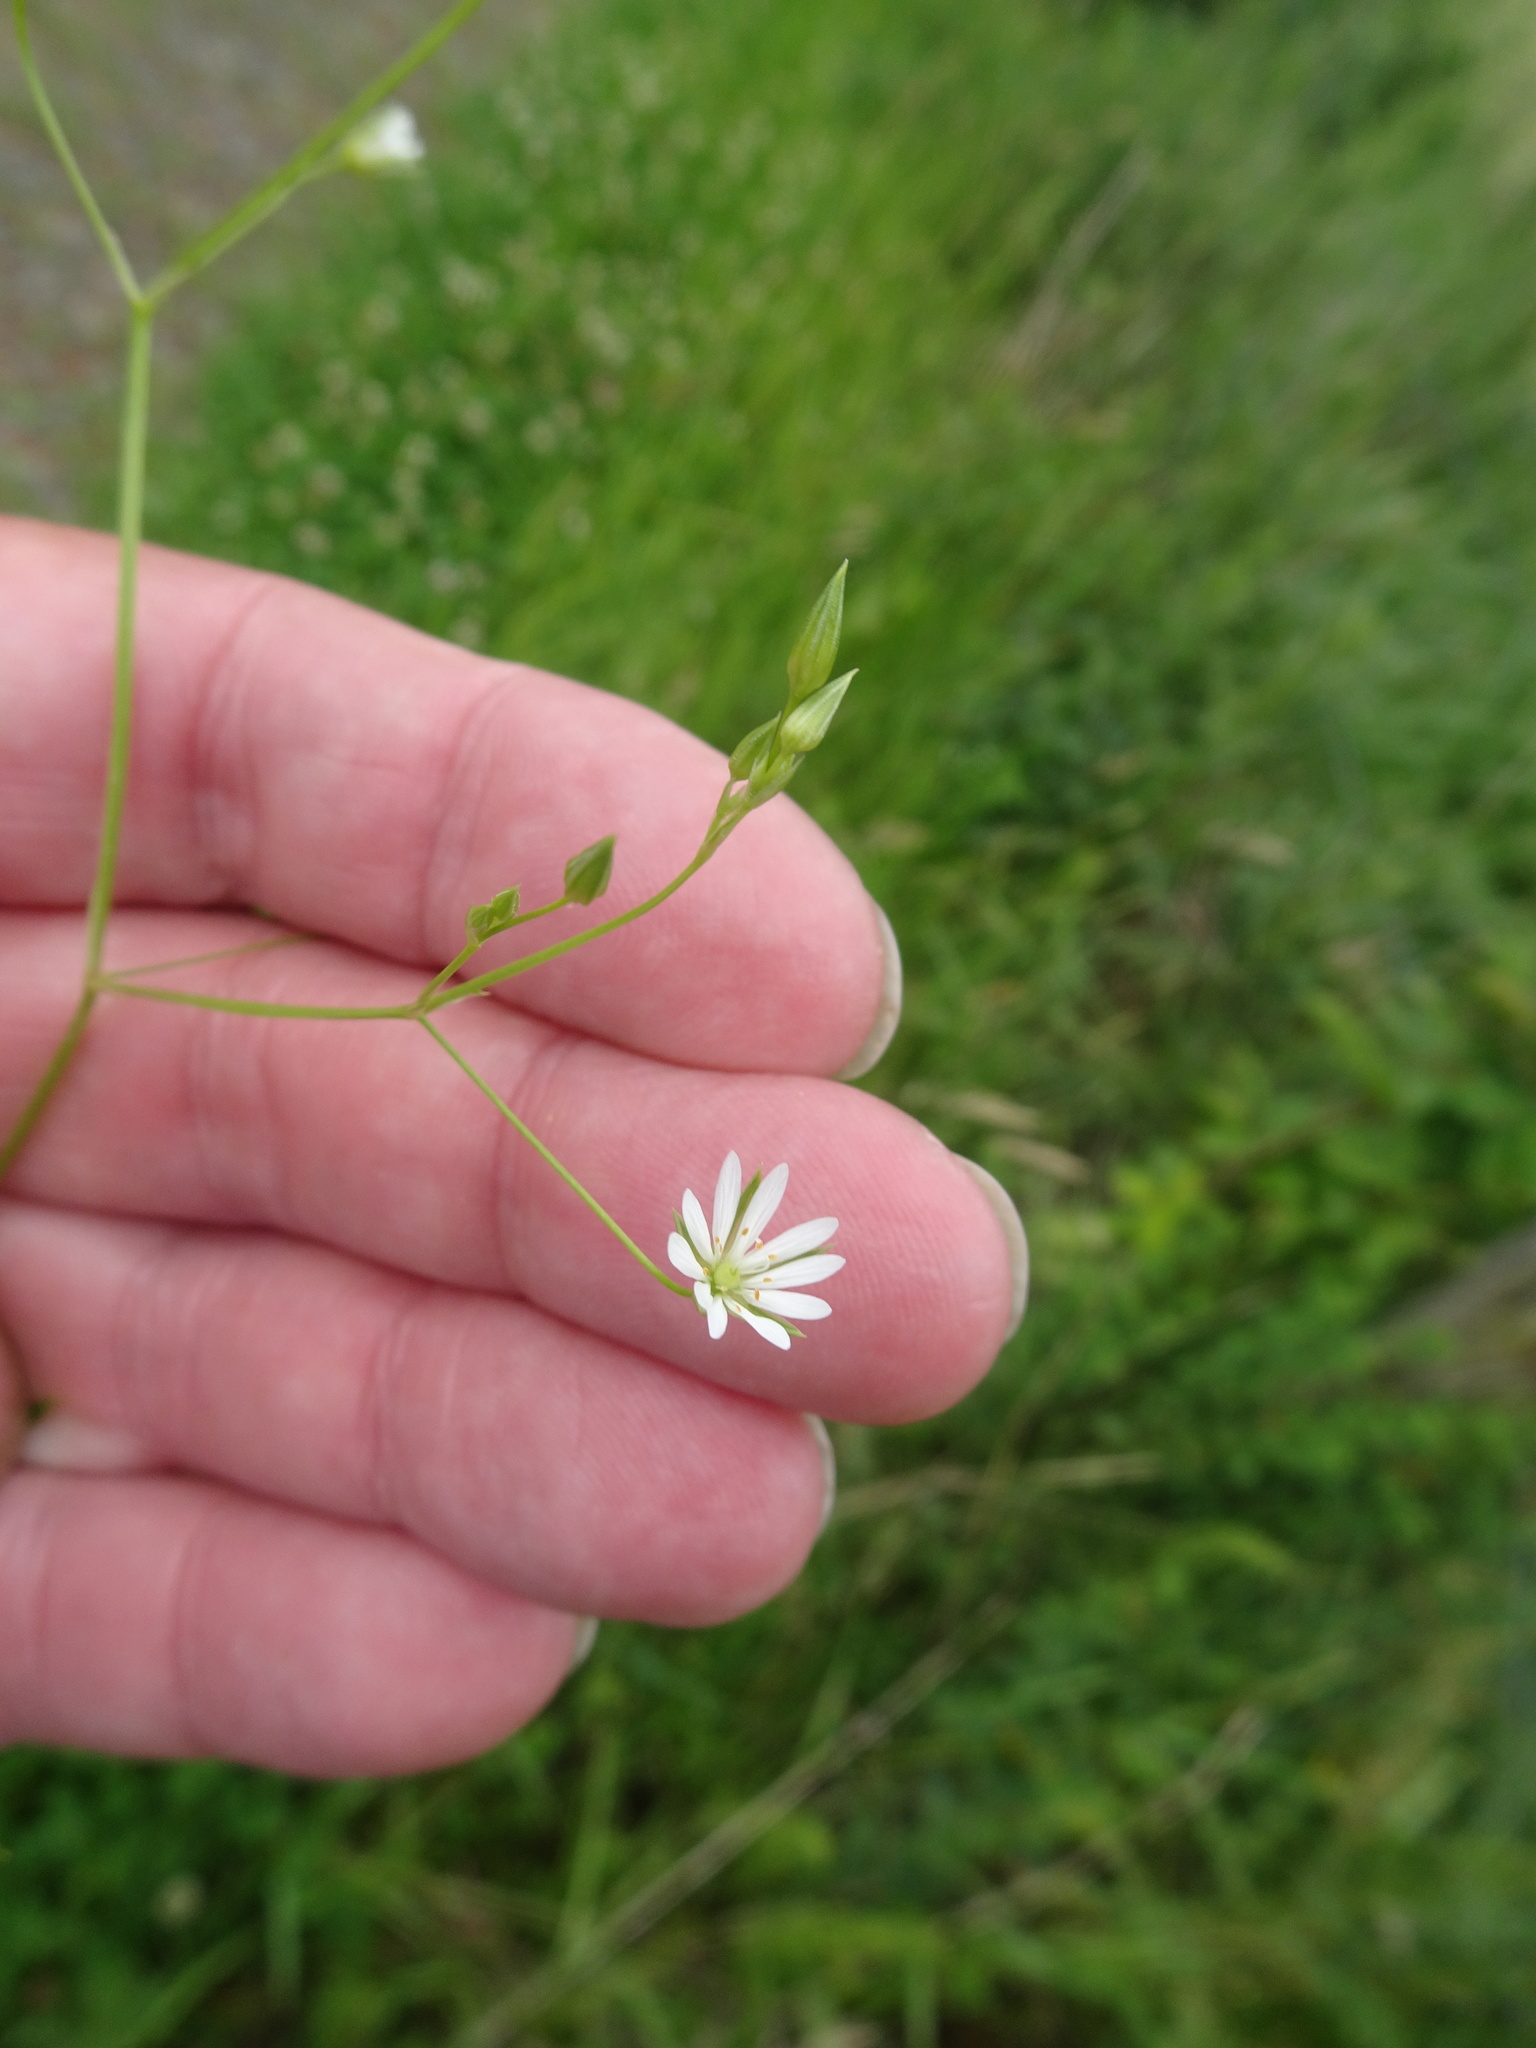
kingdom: Plantae
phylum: Tracheophyta
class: Magnoliopsida
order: Caryophyllales
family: Caryophyllaceae
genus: Stellaria
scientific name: Stellaria graminea
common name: Grass-like starwort
